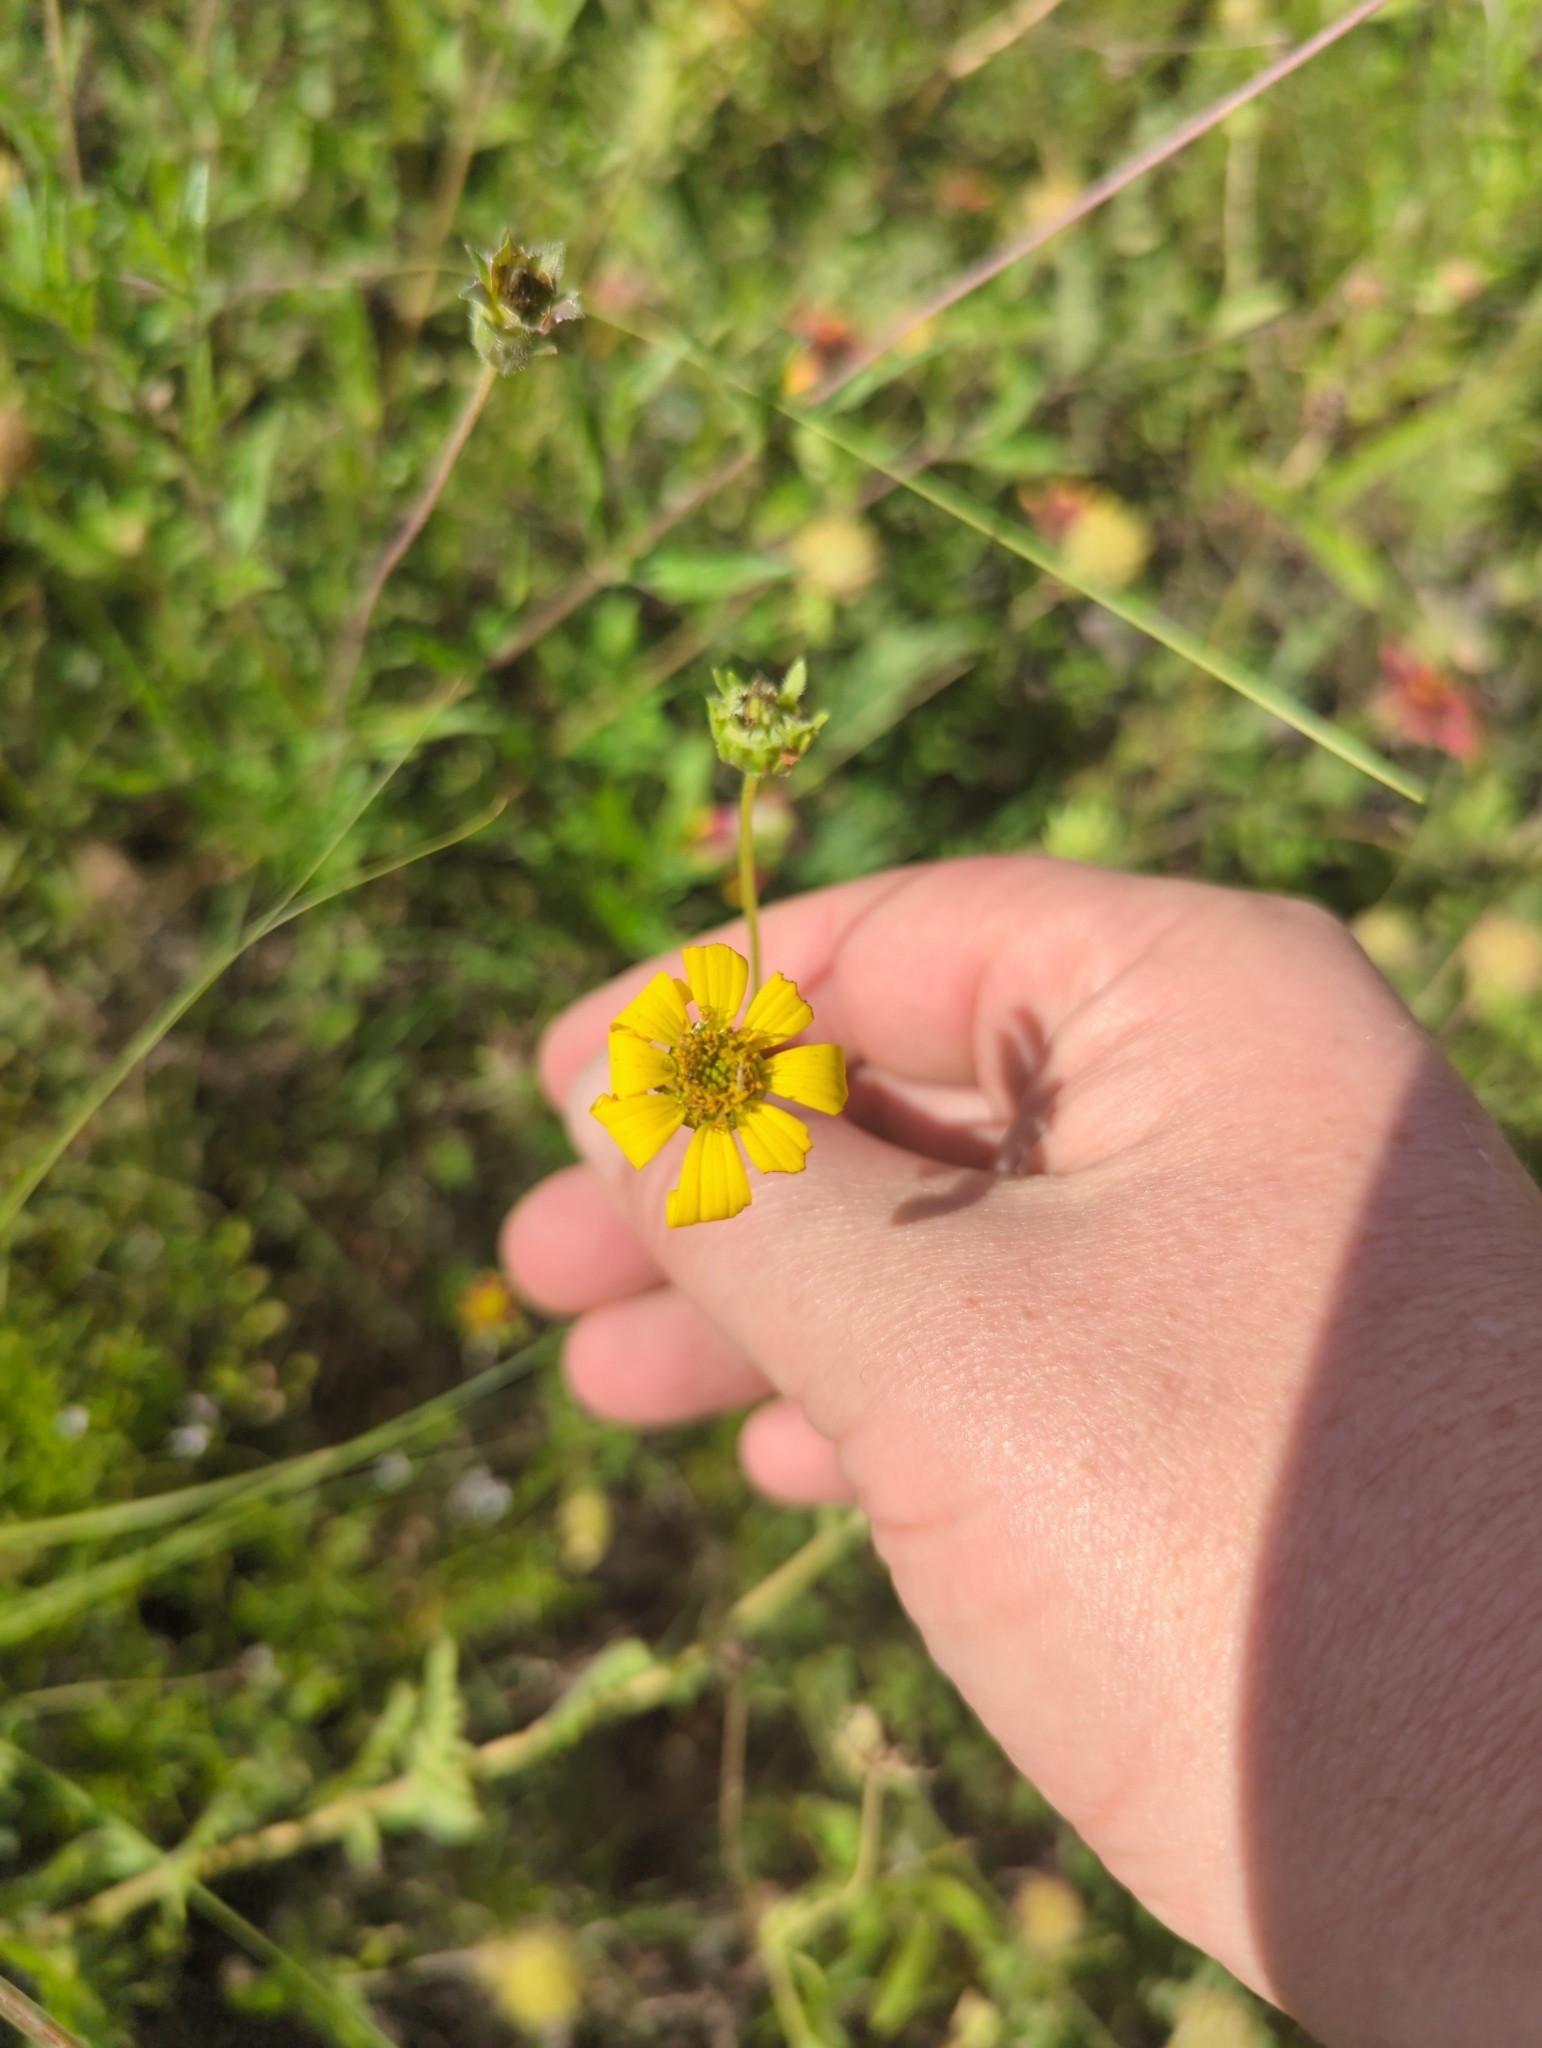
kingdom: Plantae
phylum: Tracheophyta
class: Magnoliopsida
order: Asterales
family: Asteraceae
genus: Engelmannia
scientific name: Engelmannia peristenia
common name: Engelmann's daisy
